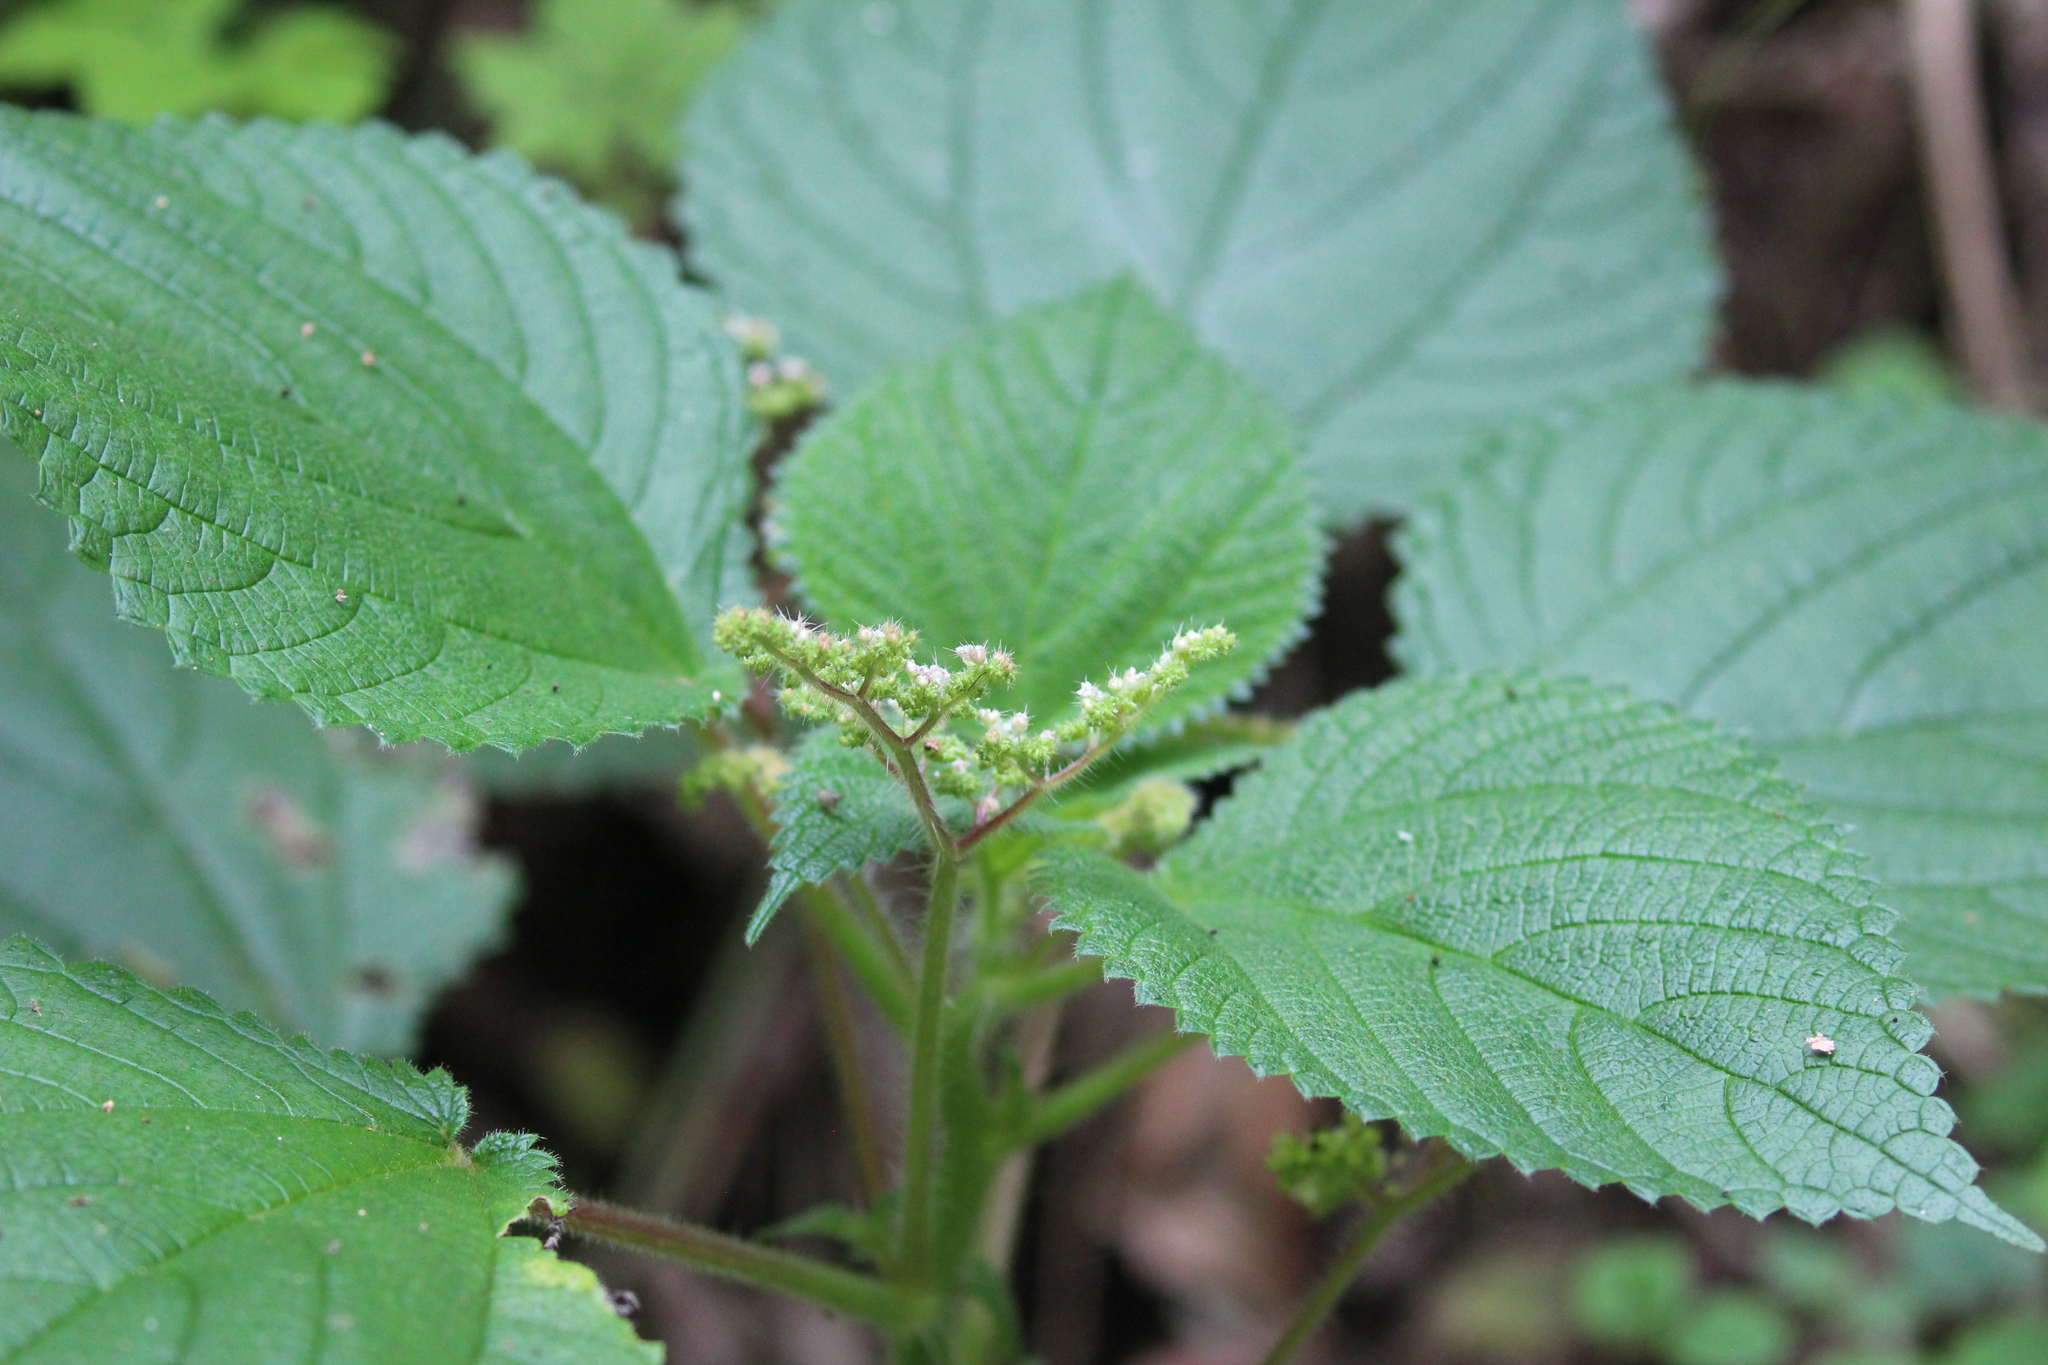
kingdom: Plantae
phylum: Tracheophyta
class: Magnoliopsida
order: Rosales
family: Urticaceae
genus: Laportea
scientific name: Laportea aestuans
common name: West indian woodnettle
